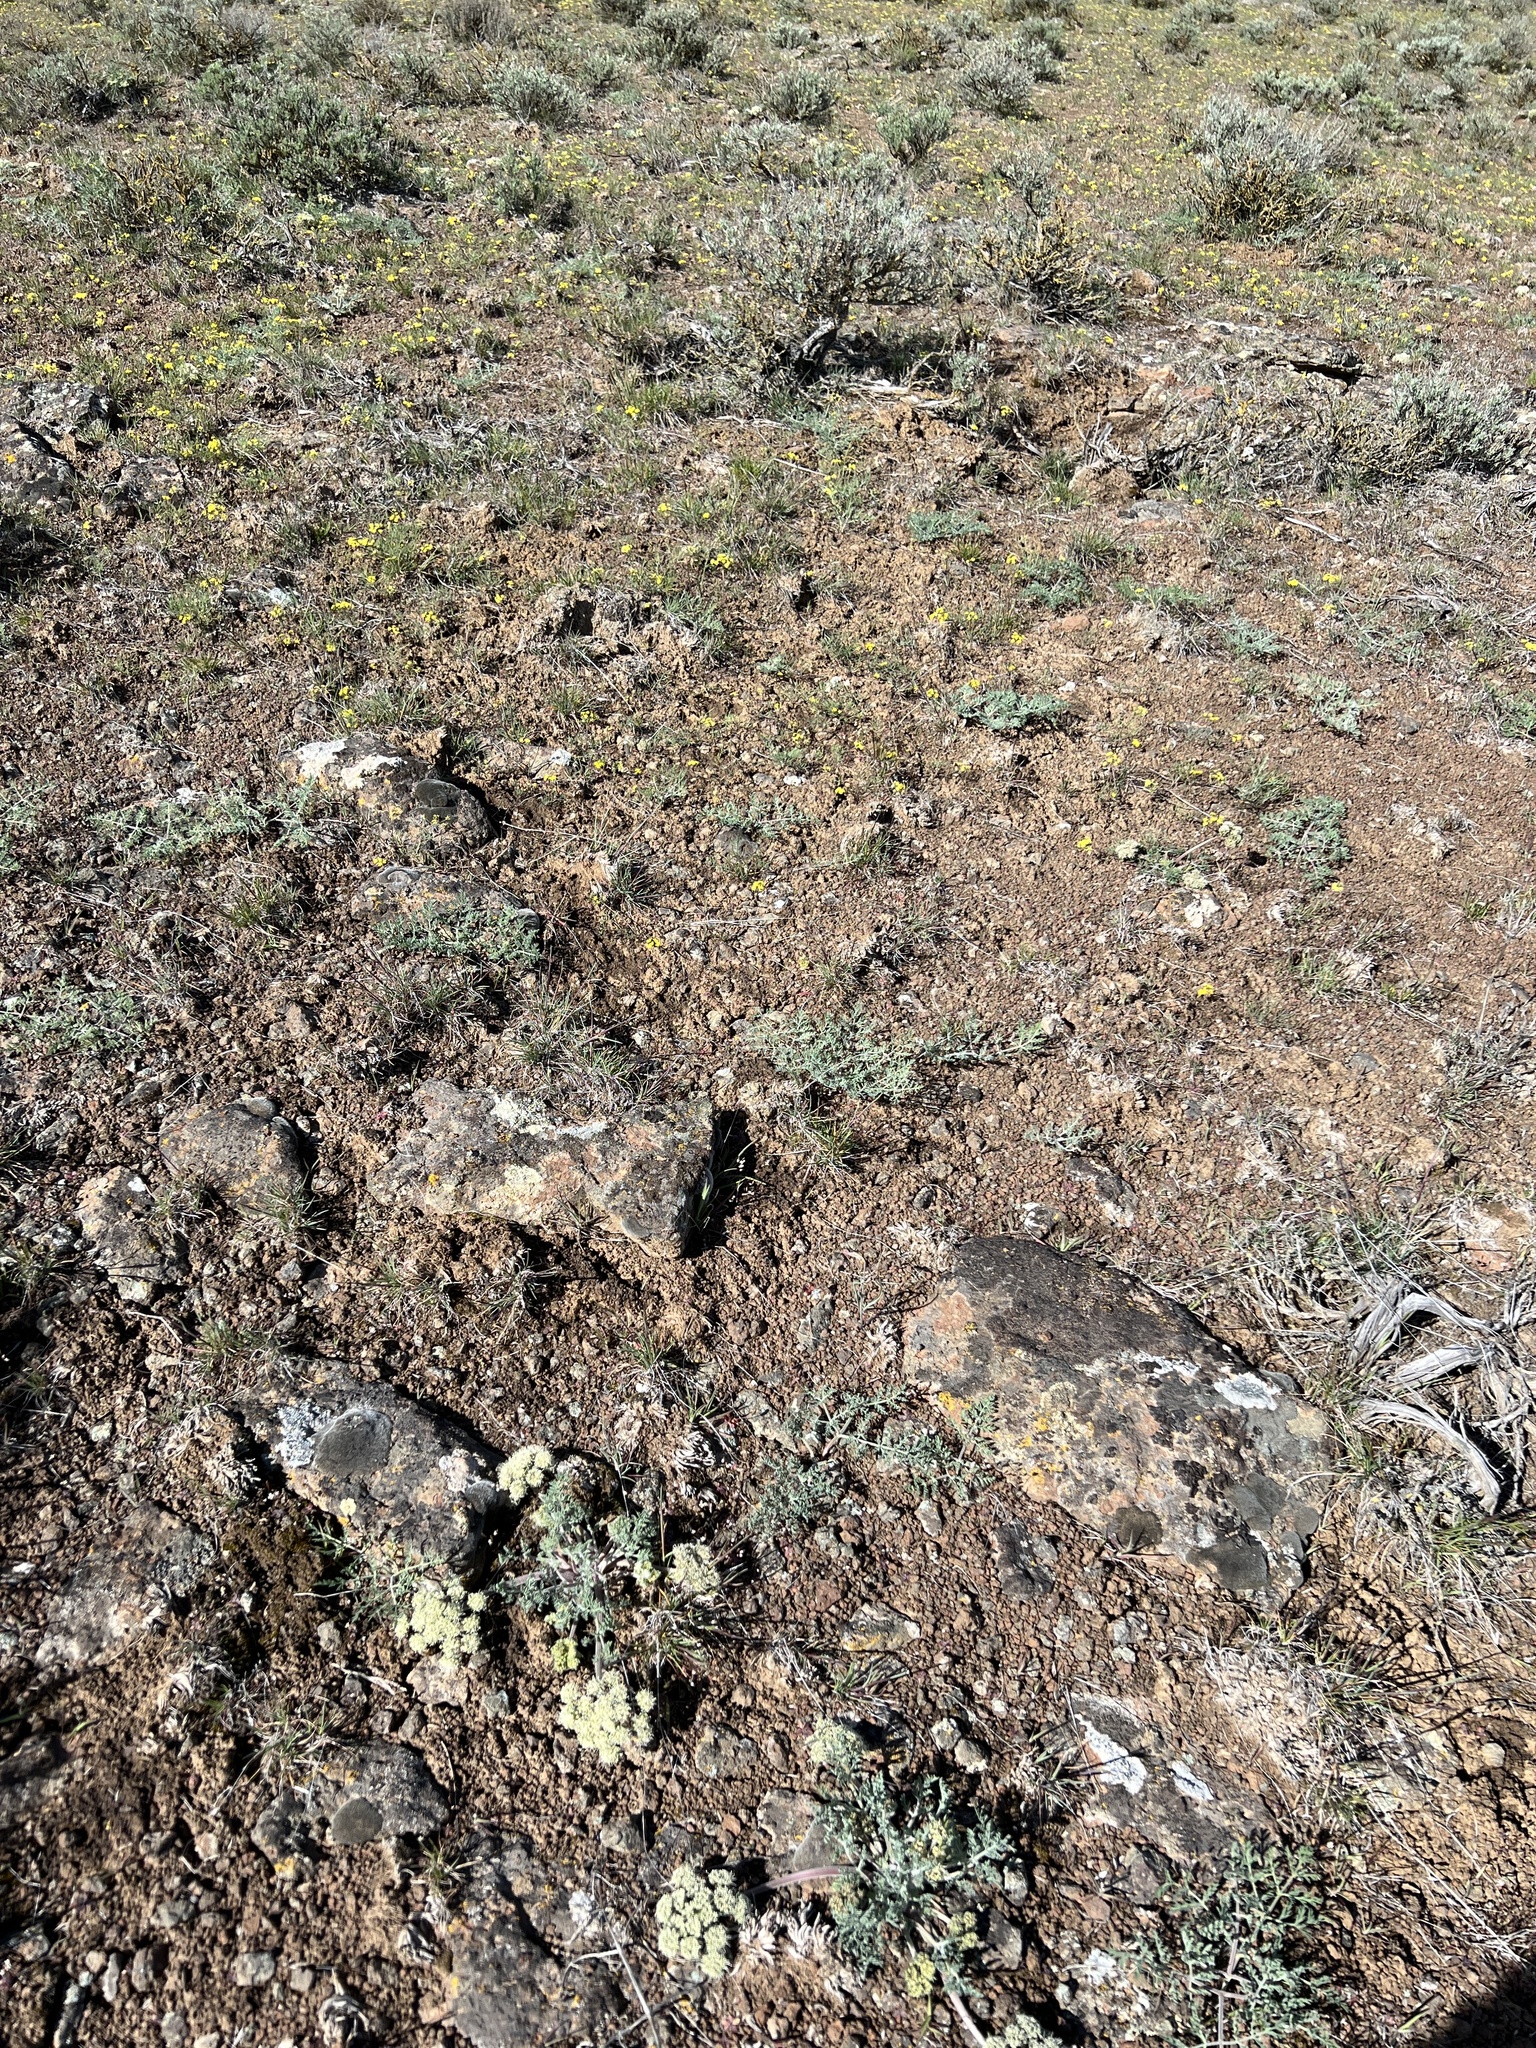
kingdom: Plantae
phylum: Tracheophyta
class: Magnoliopsida
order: Apiales
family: Apiaceae
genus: Lomatium
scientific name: Lomatium macrocarpum
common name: Big-seed biscuitroot
